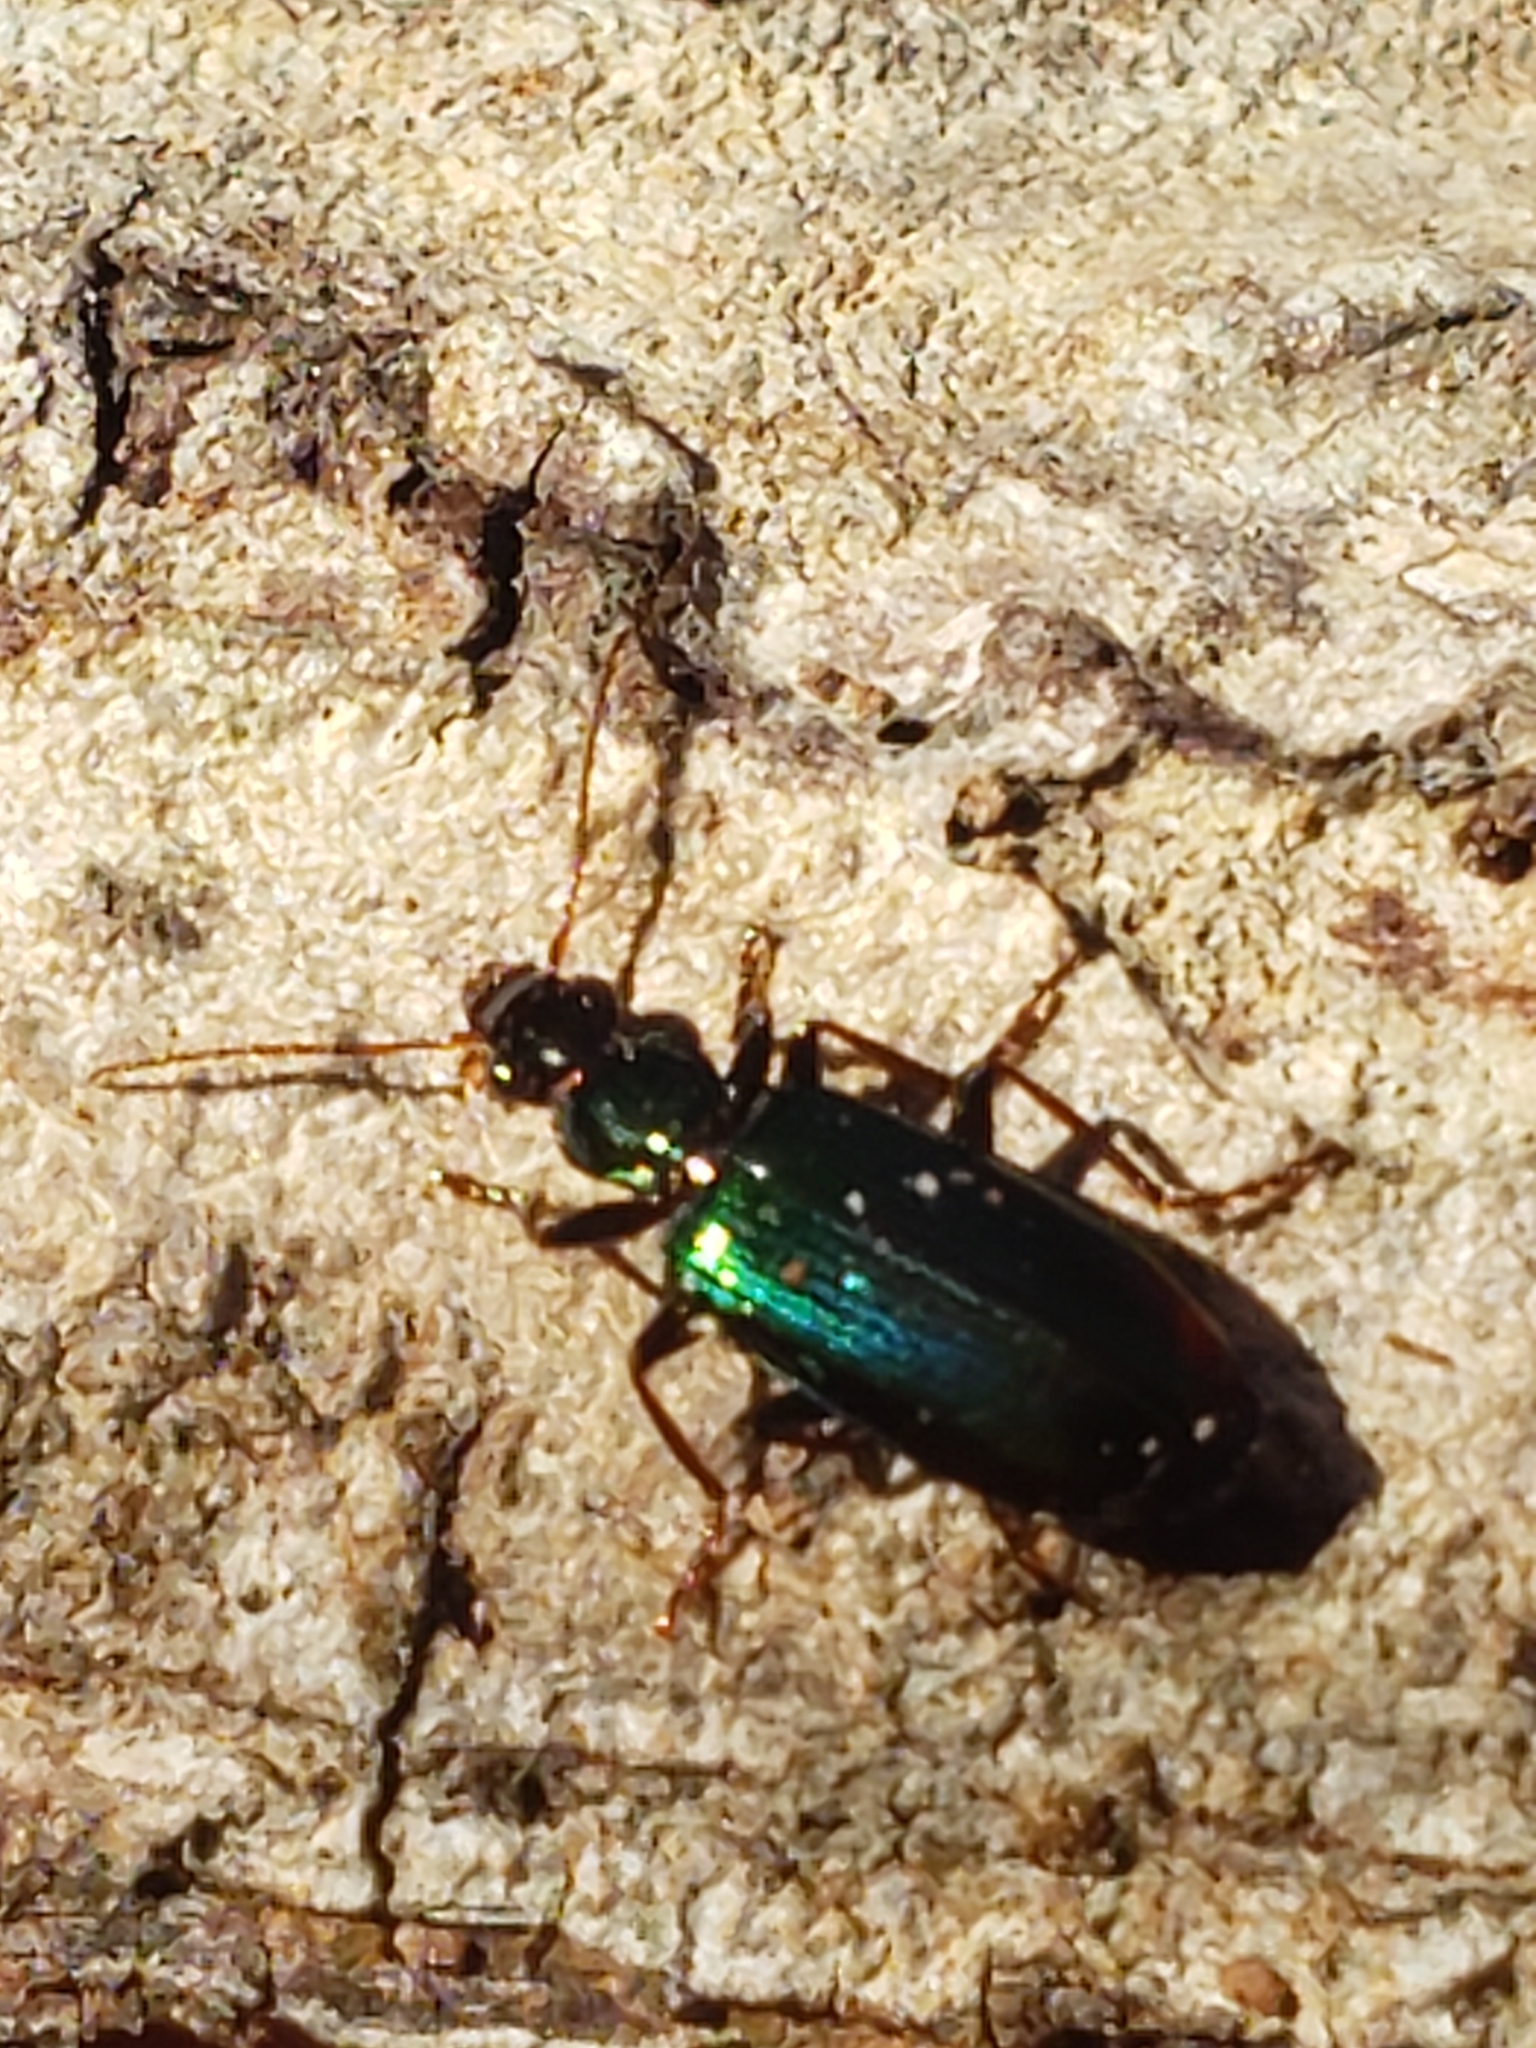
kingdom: Animalia
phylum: Arthropoda
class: Insecta
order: Coleoptera
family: Carabidae
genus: Calleida
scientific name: Calleida viridipennis
